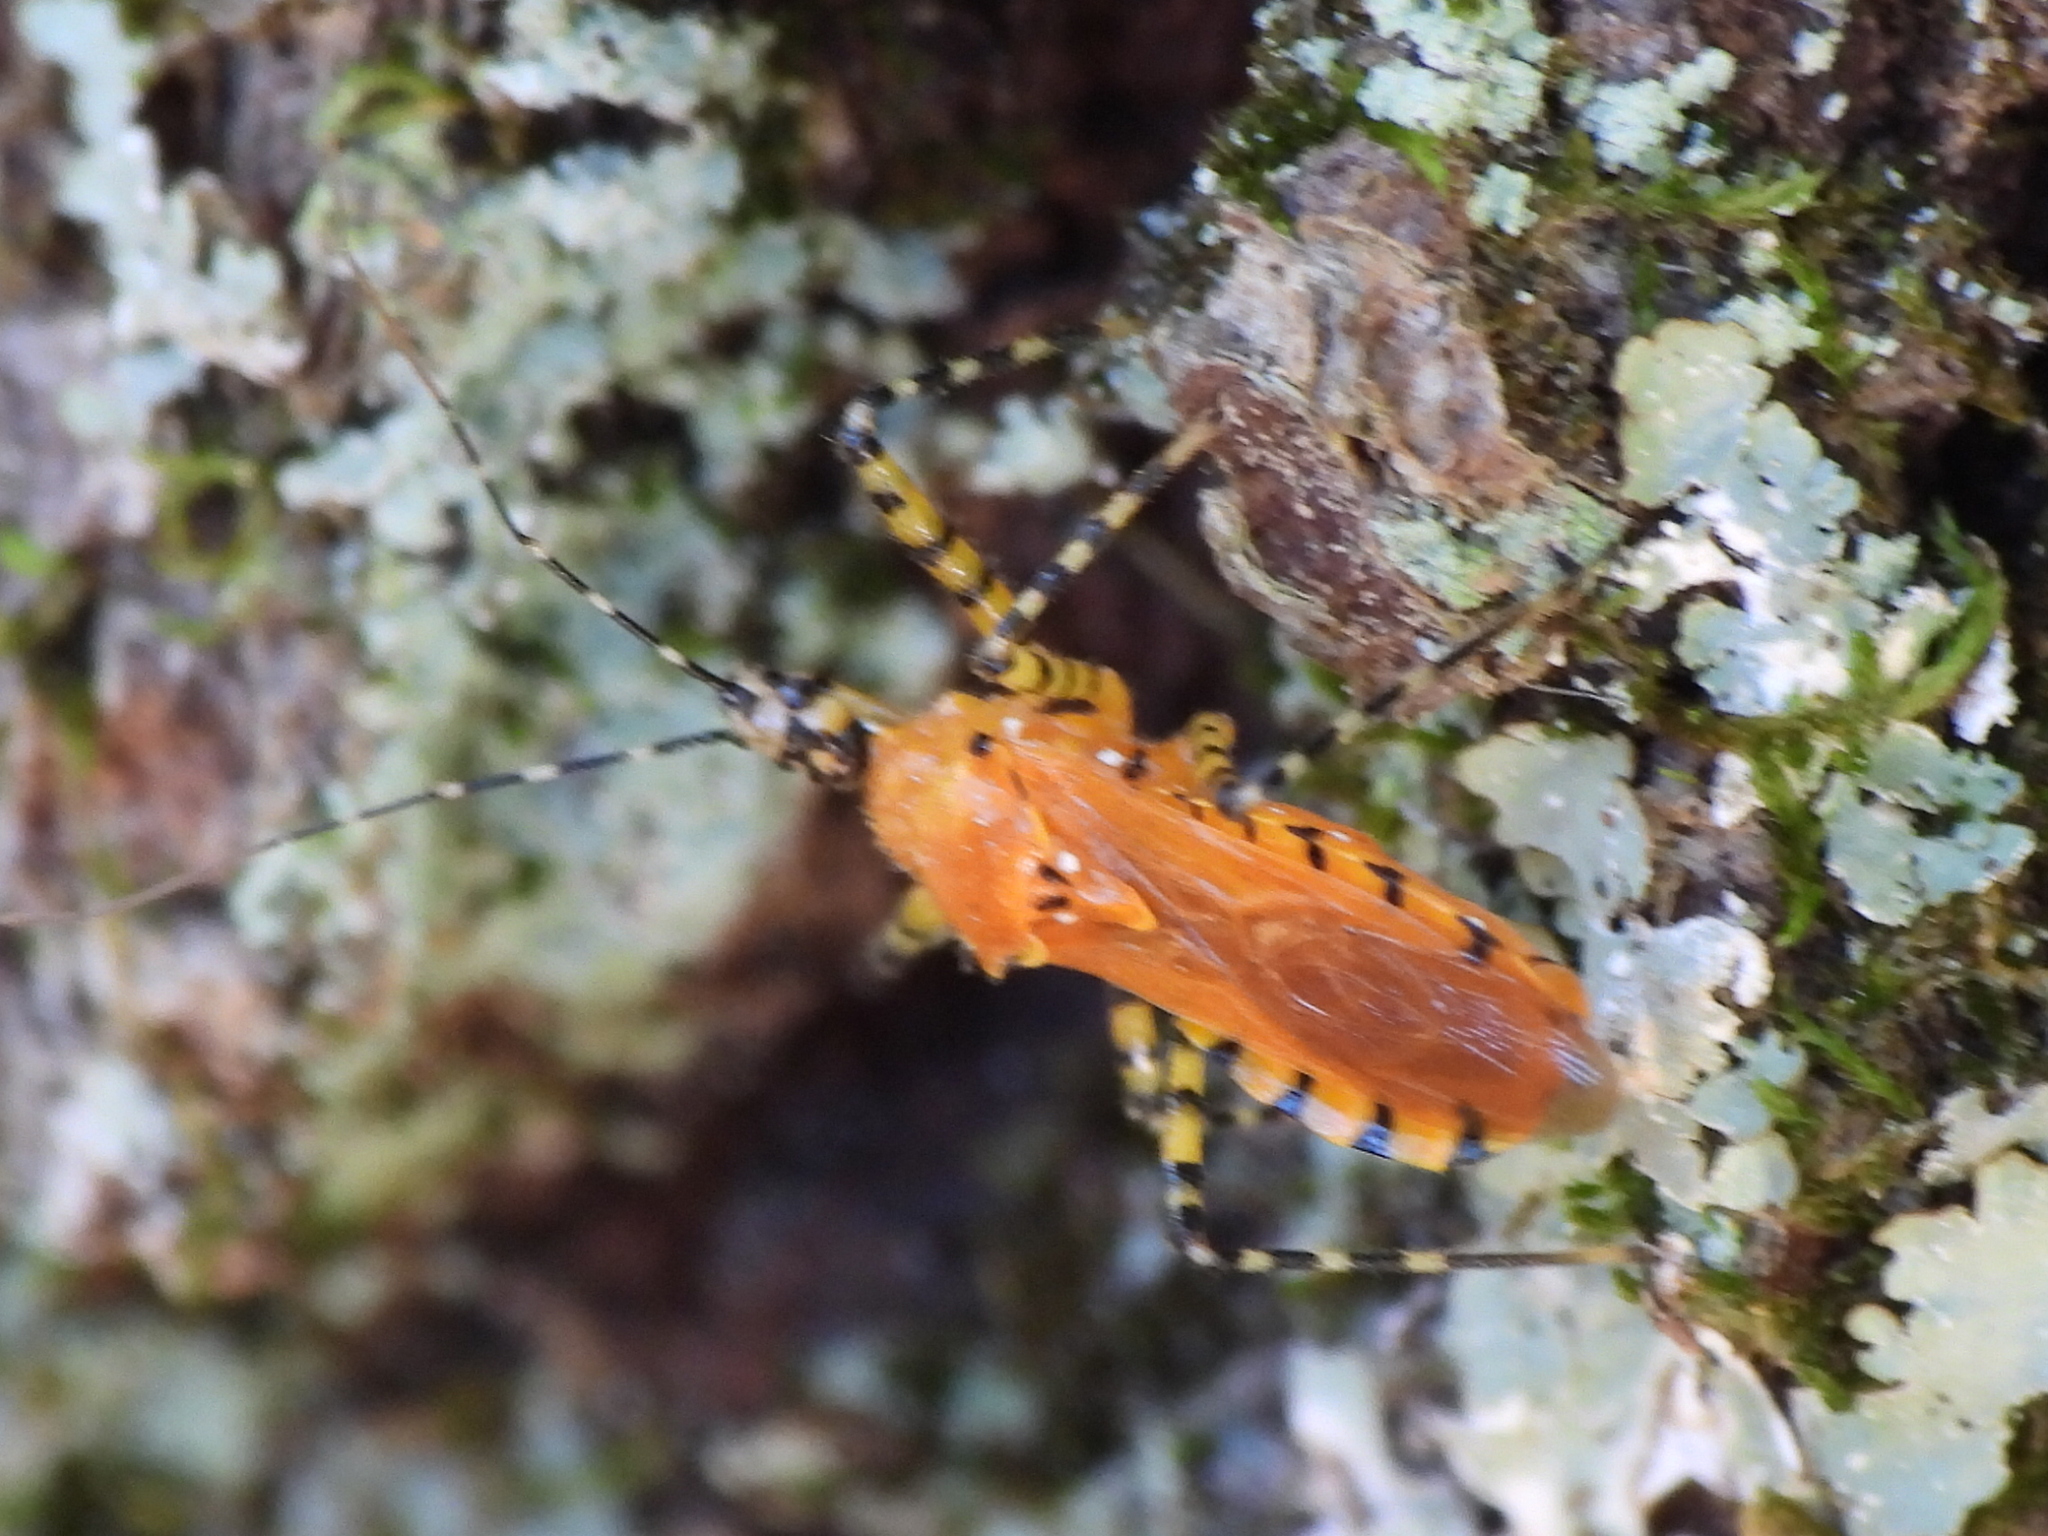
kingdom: Animalia
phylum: Arthropoda
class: Insecta
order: Hemiptera
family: Reduviidae
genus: Pselliopus
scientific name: Pselliopus barberi
